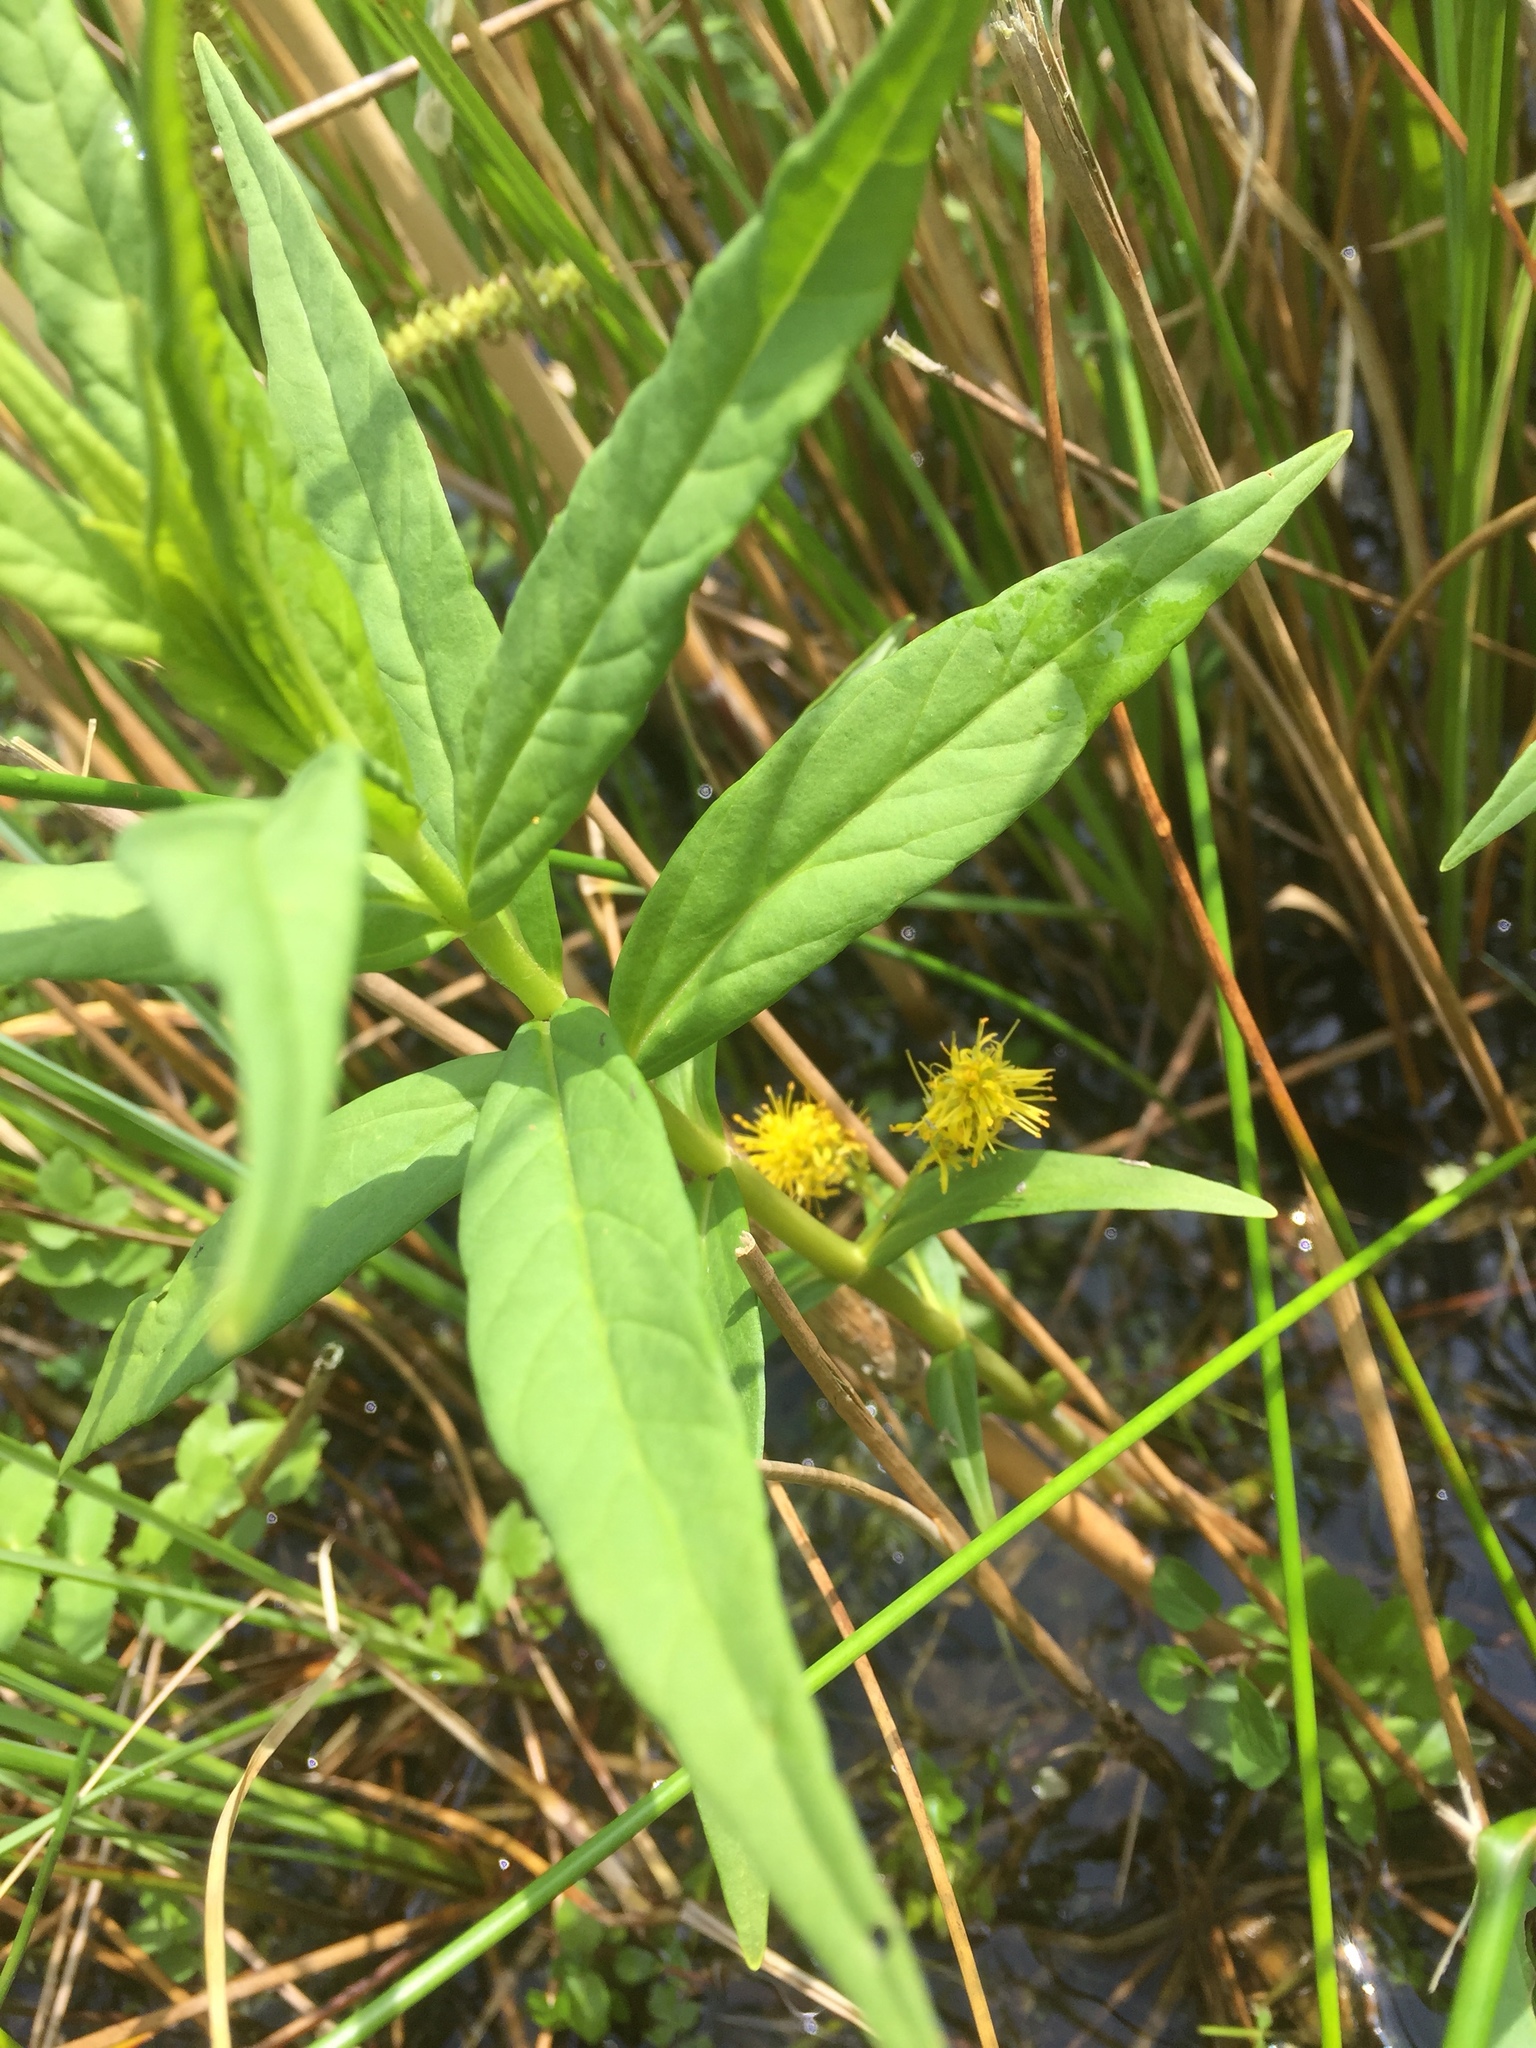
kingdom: Plantae
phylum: Tracheophyta
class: Magnoliopsida
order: Ericales
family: Primulaceae
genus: Lysimachia
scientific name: Lysimachia thyrsiflora
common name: Tufted loosestrife
